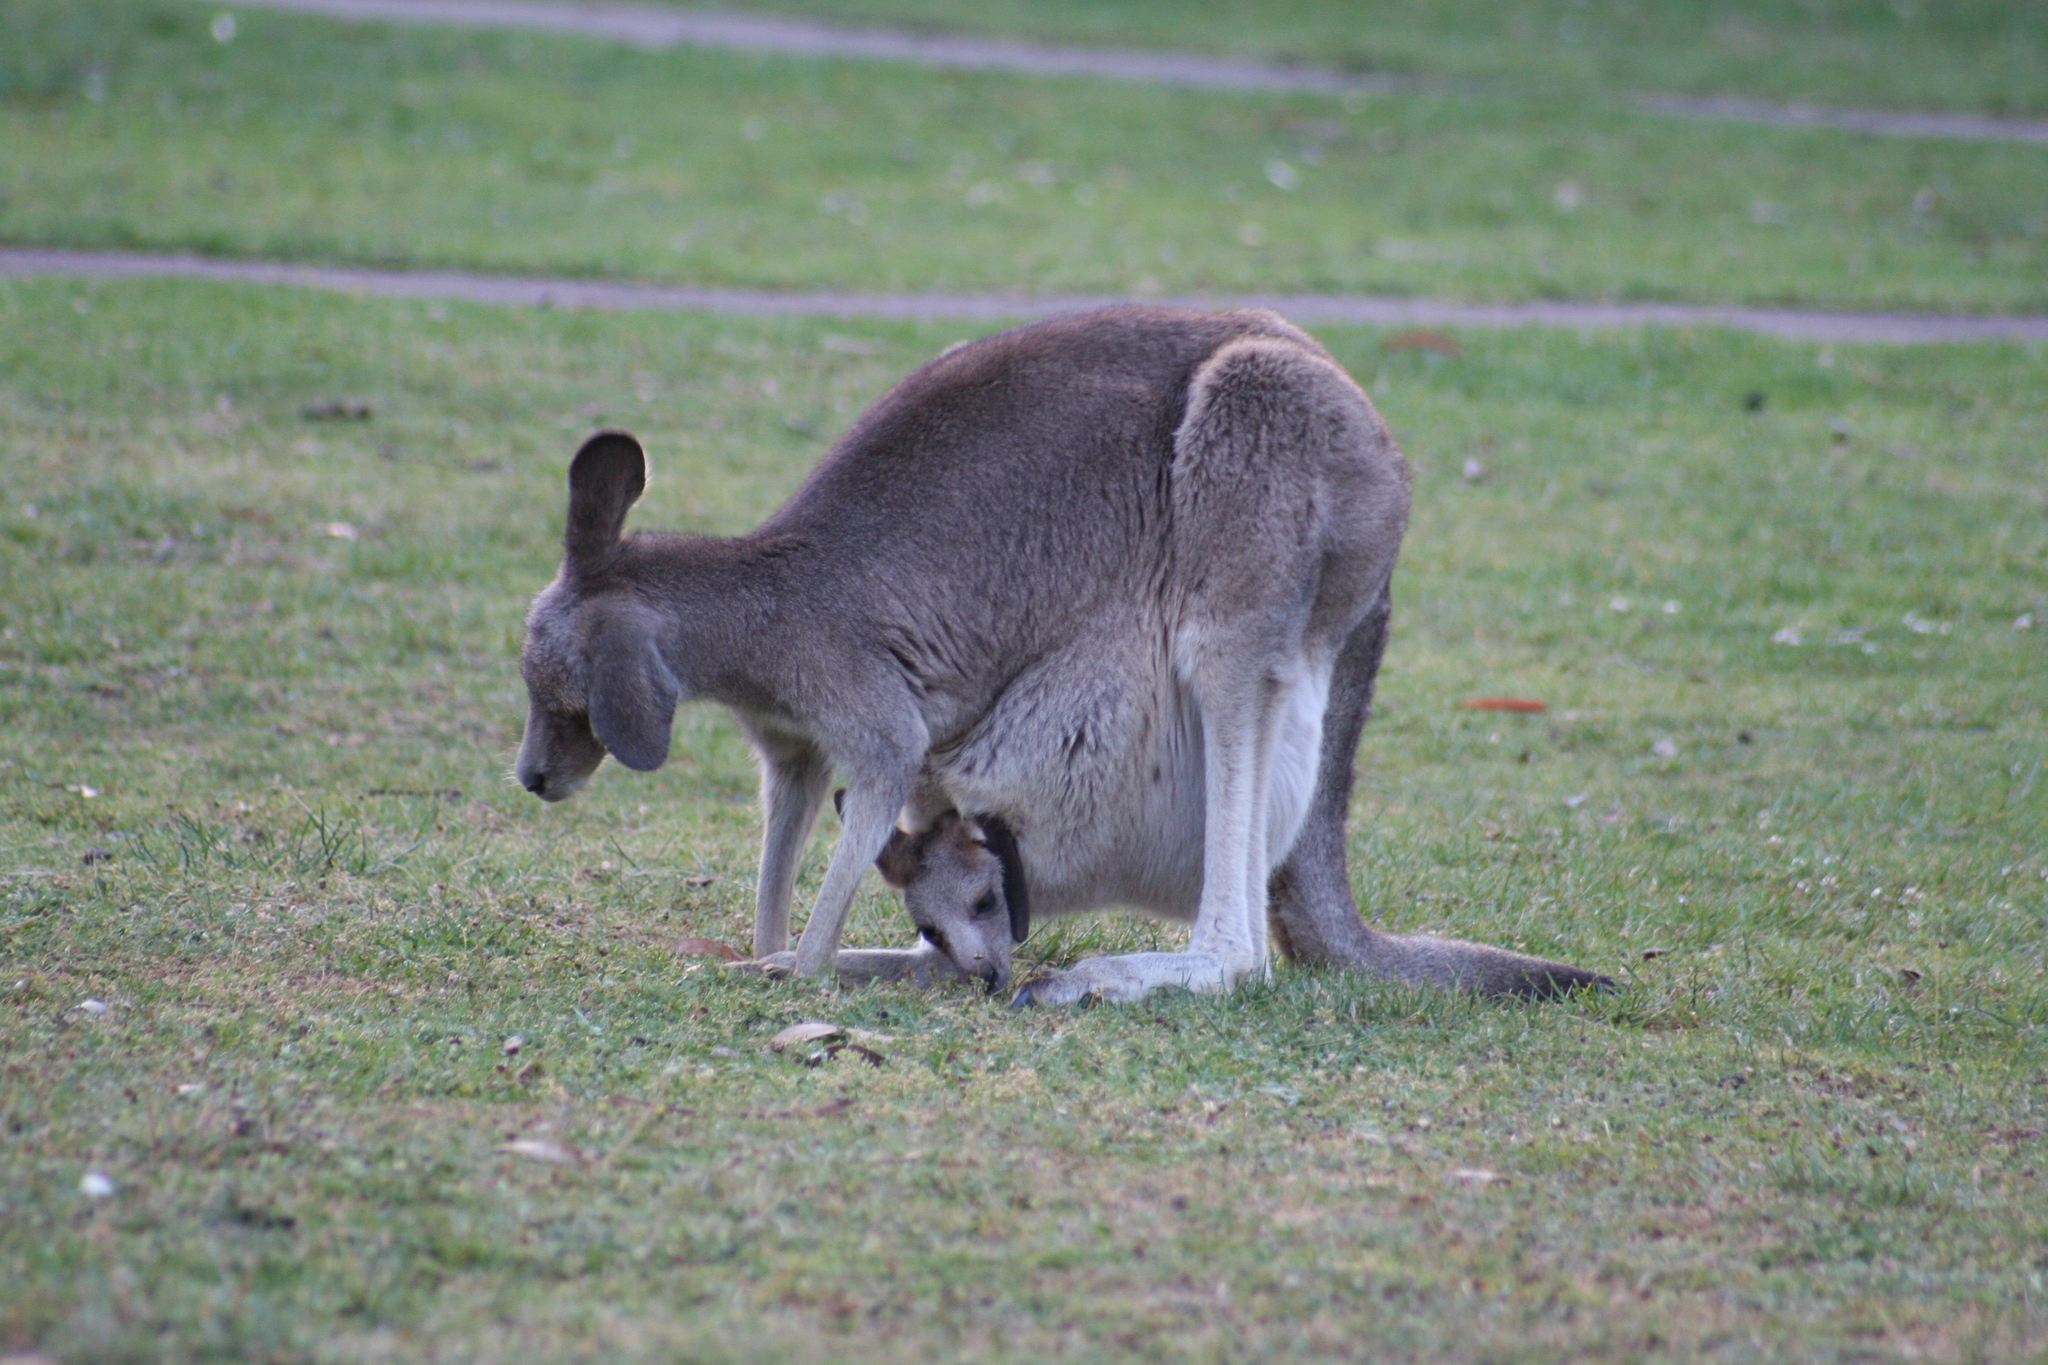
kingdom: Animalia
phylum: Chordata
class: Mammalia
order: Diprotodontia
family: Macropodidae
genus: Macropus
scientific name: Macropus giganteus
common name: Eastern grey kangaroo
